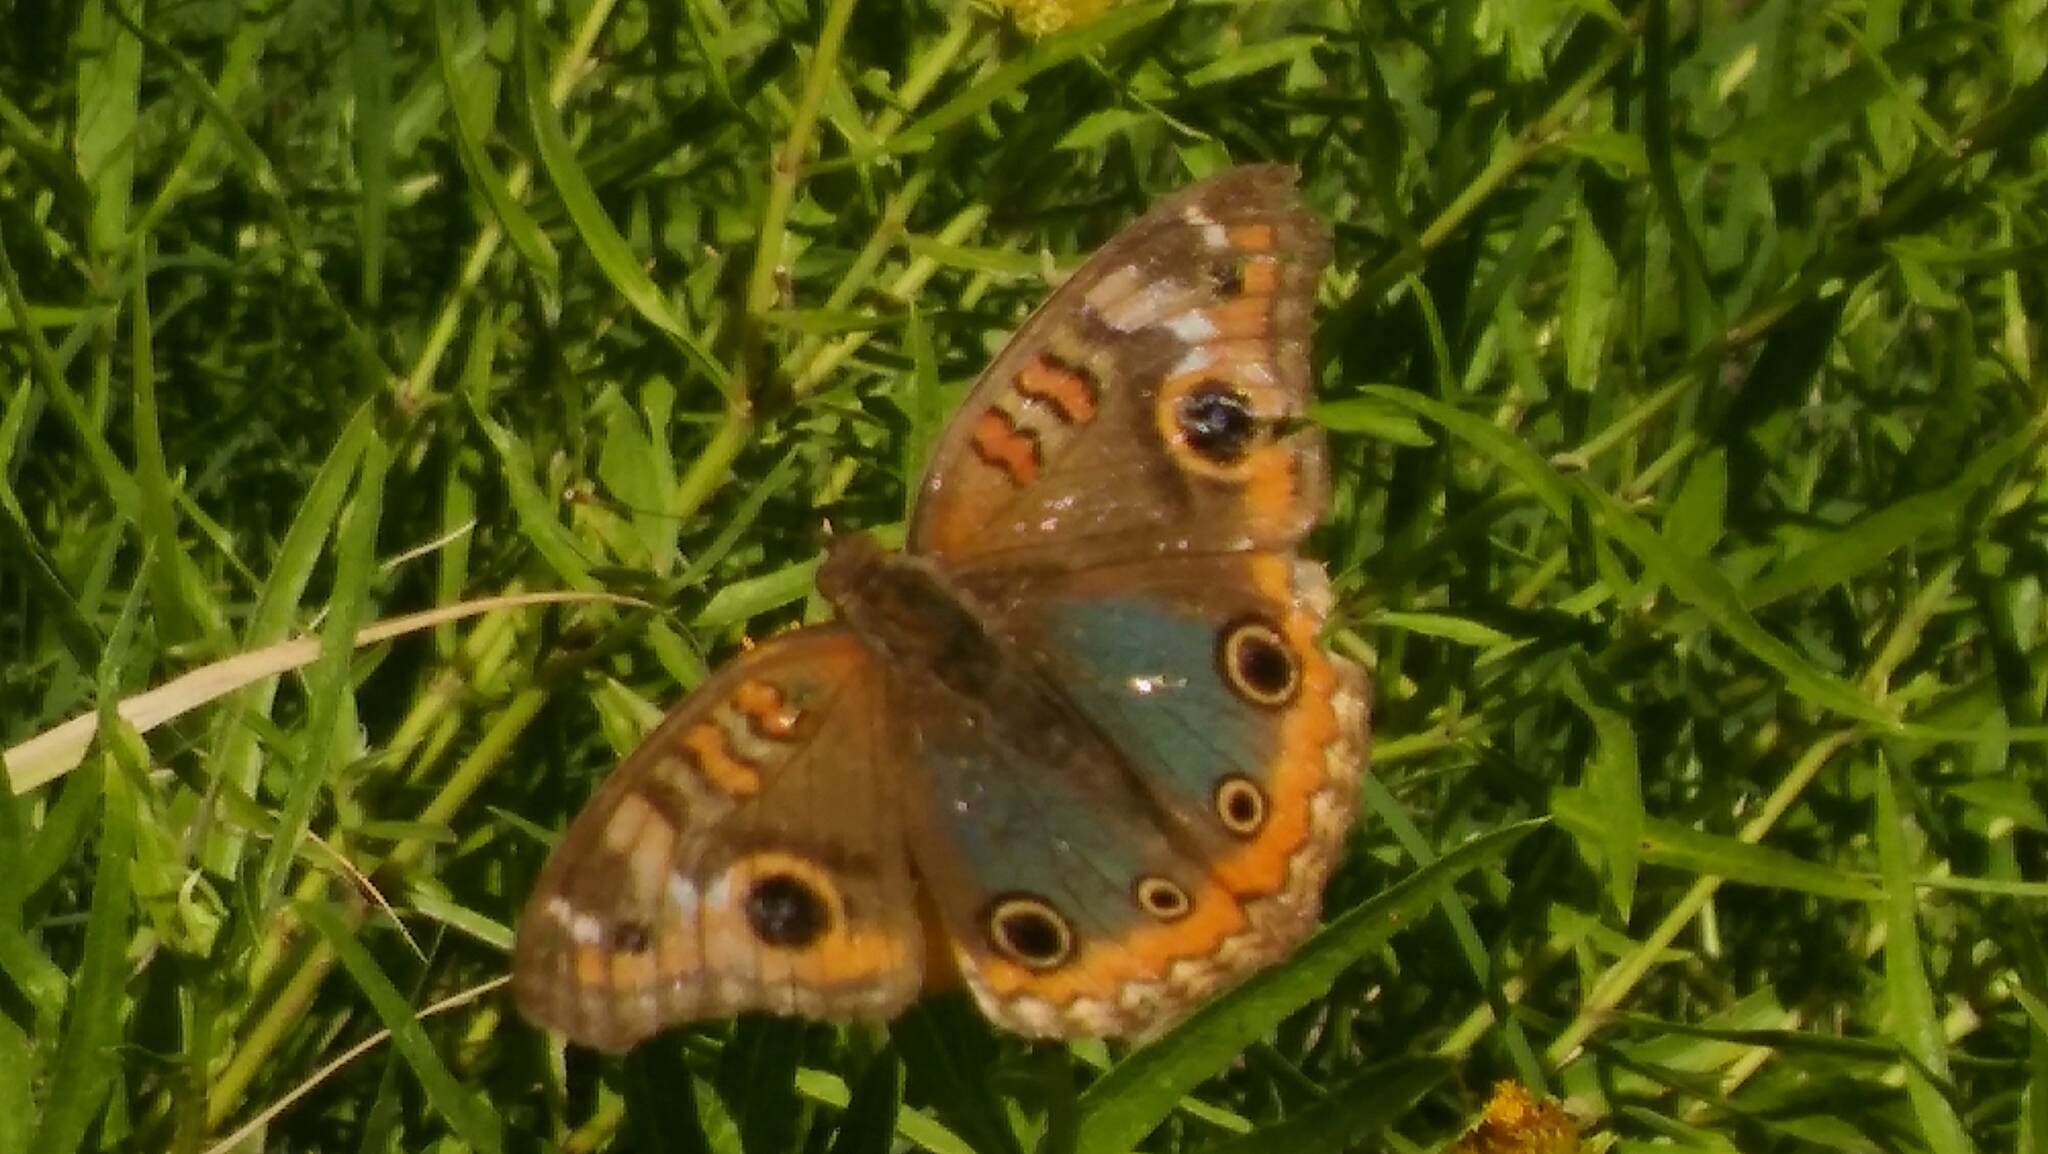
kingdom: Animalia
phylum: Arthropoda
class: Insecta
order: Lepidoptera
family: Nymphalidae
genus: Junonia
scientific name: Junonia lavinia
